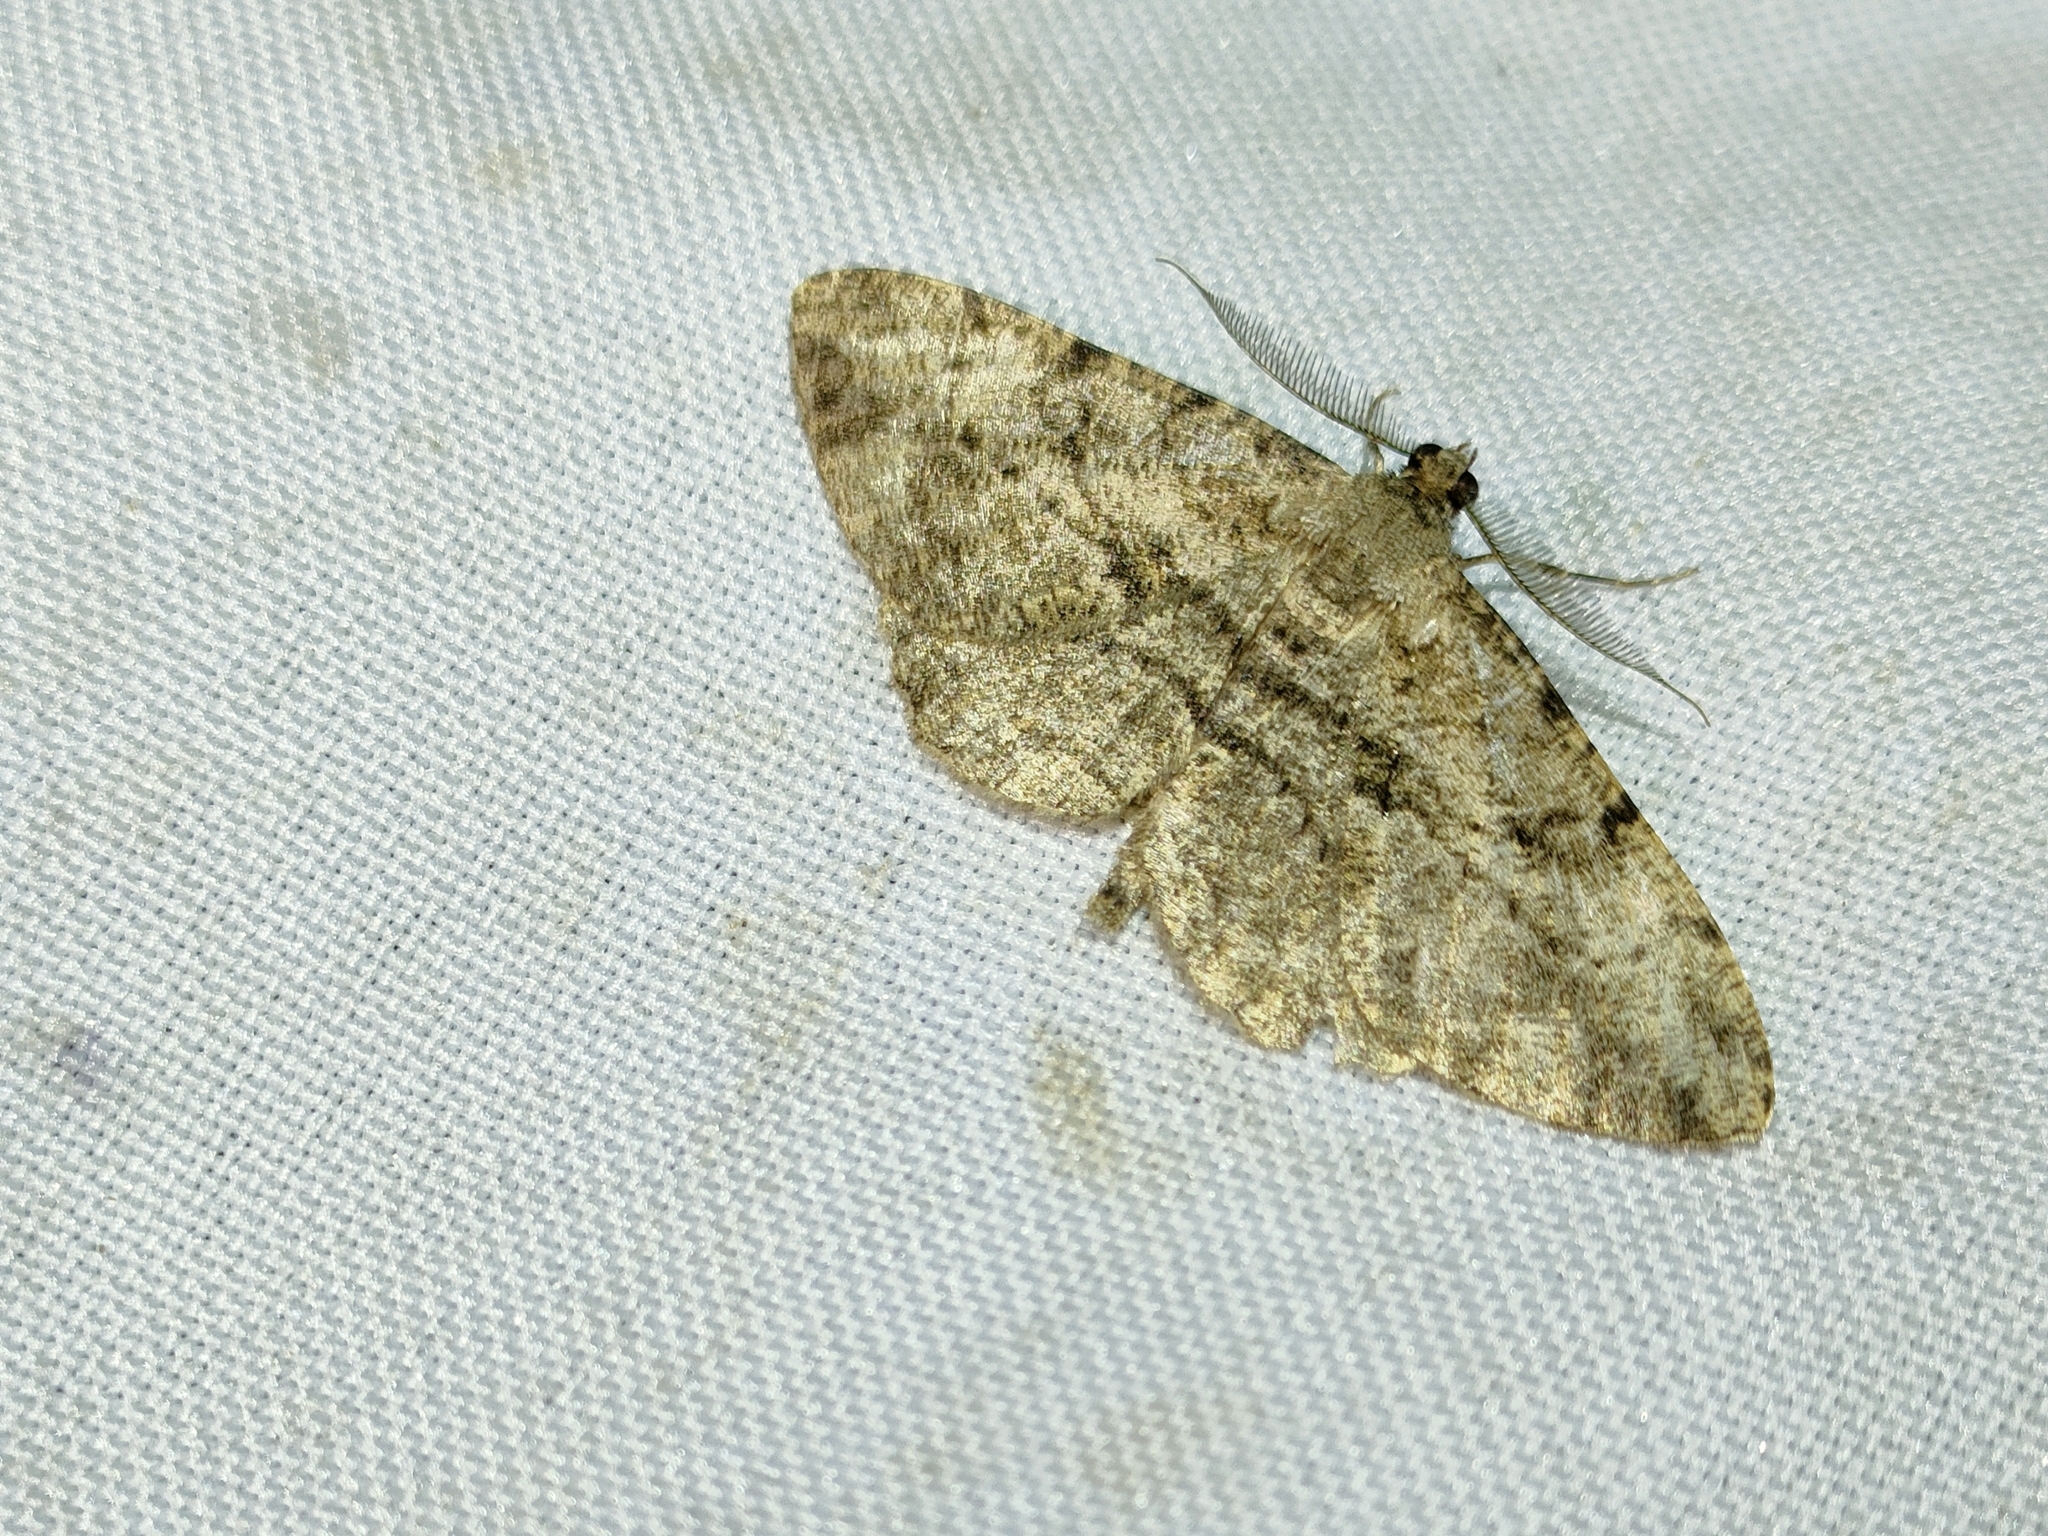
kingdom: Animalia
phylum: Arthropoda
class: Insecta
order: Lepidoptera
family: Geometridae
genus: Peribatodes
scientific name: Peribatodes rhomboidaria
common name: Willow beauty
